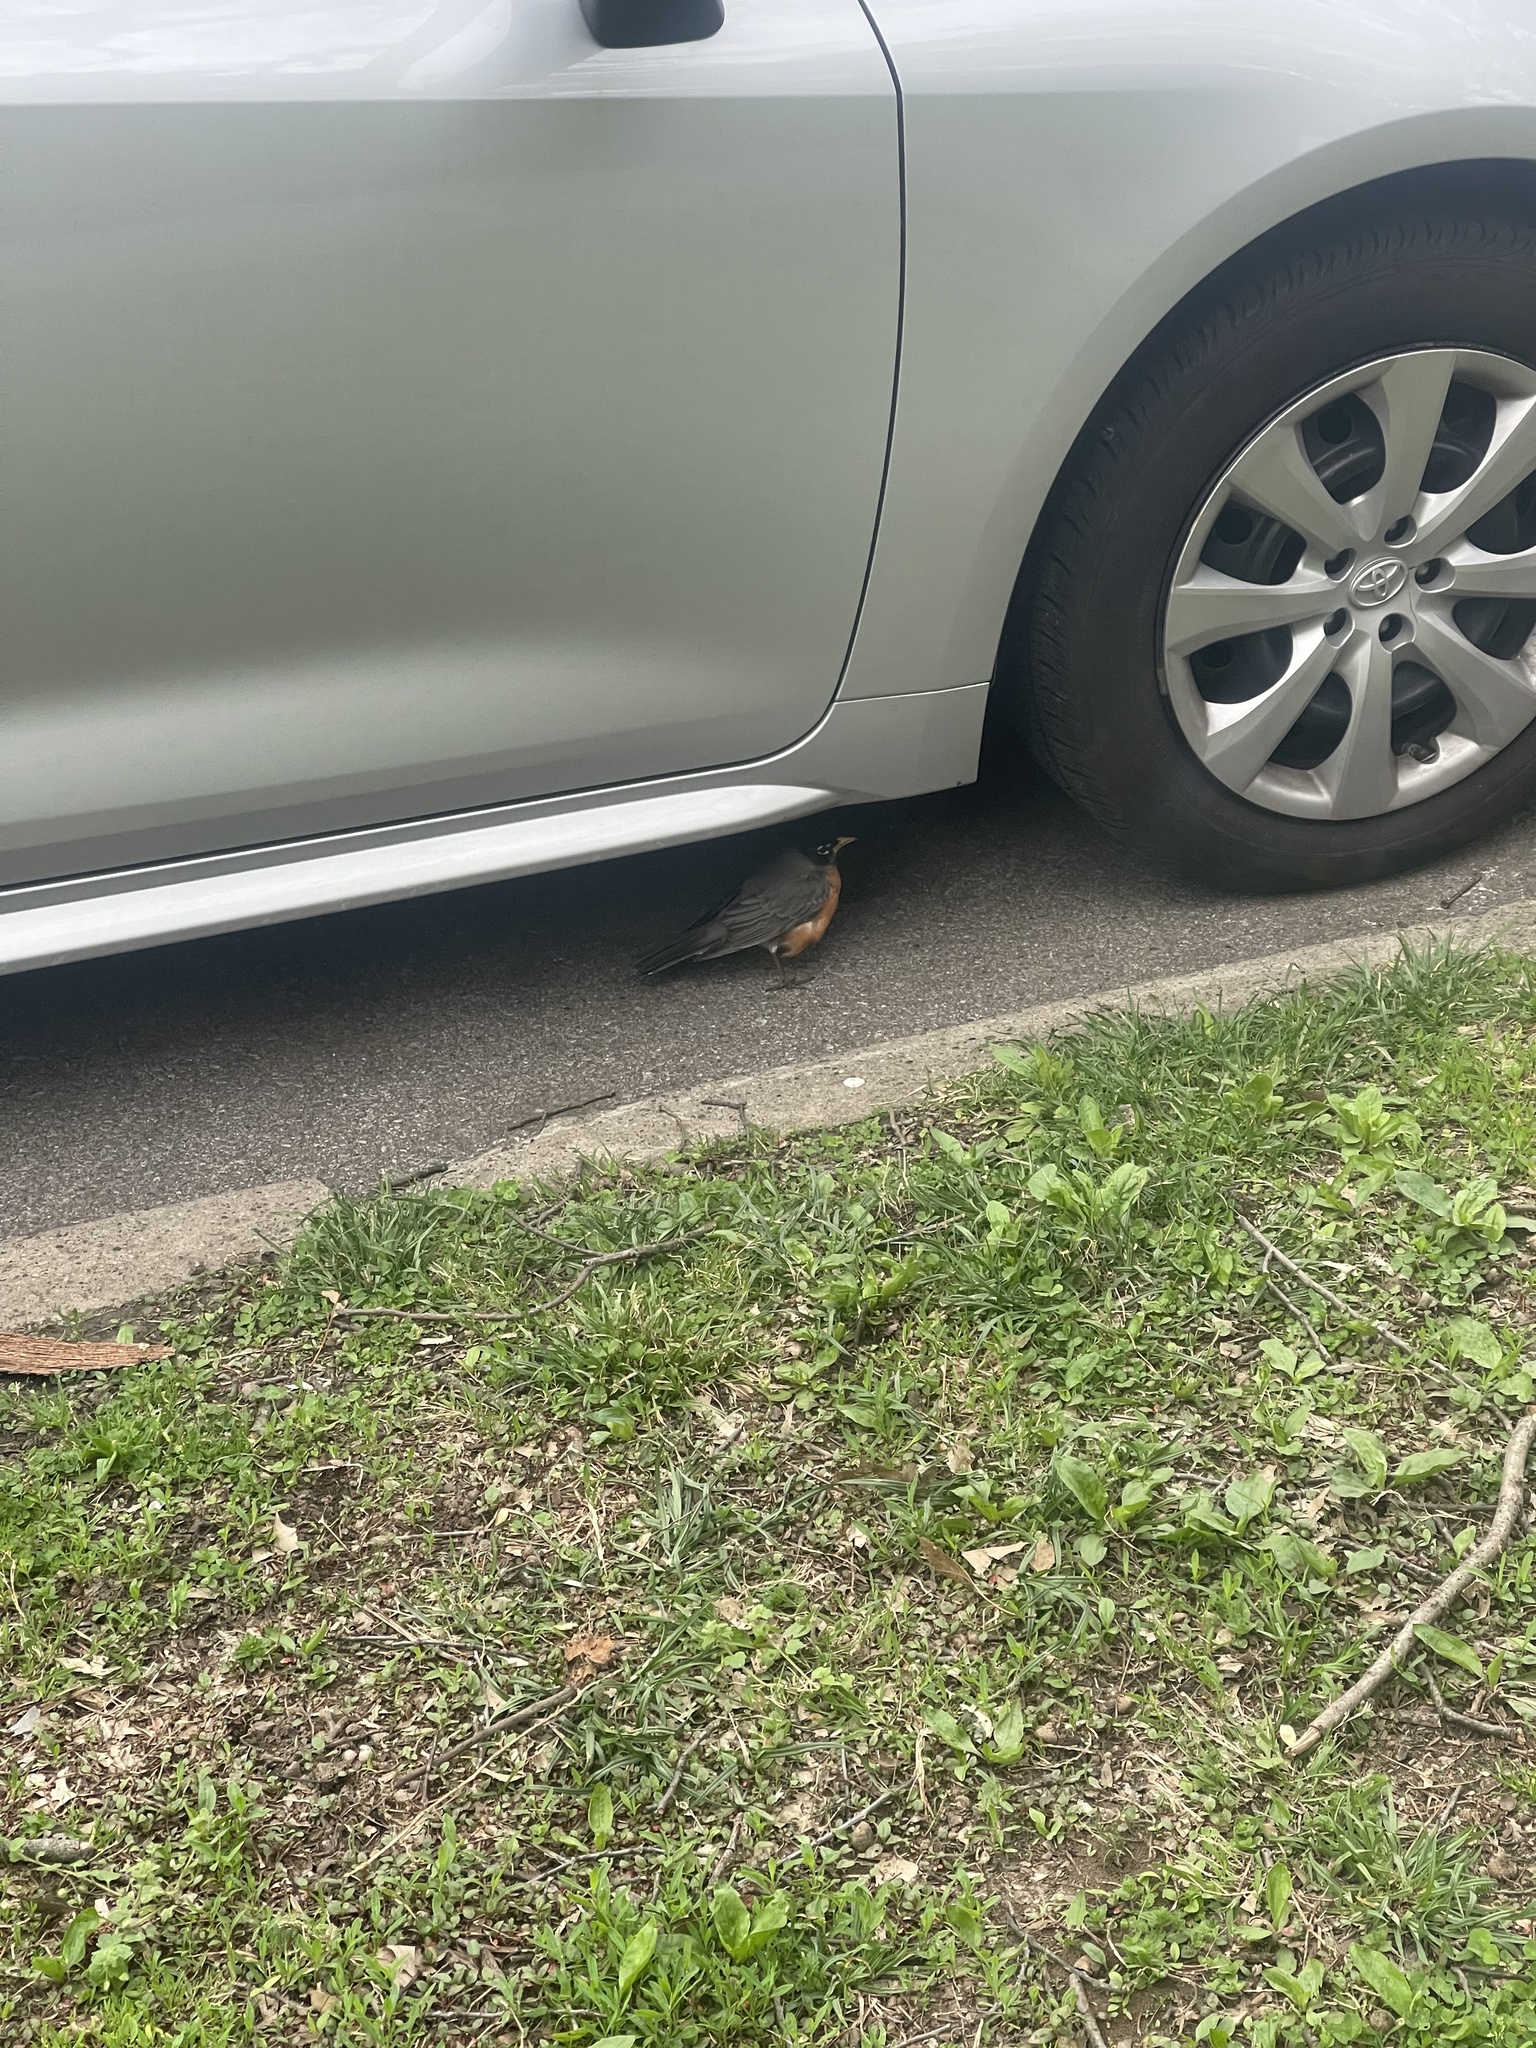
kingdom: Animalia
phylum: Chordata
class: Aves
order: Passeriformes
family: Turdidae
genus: Turdus
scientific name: Turdus migratorius
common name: American robin
